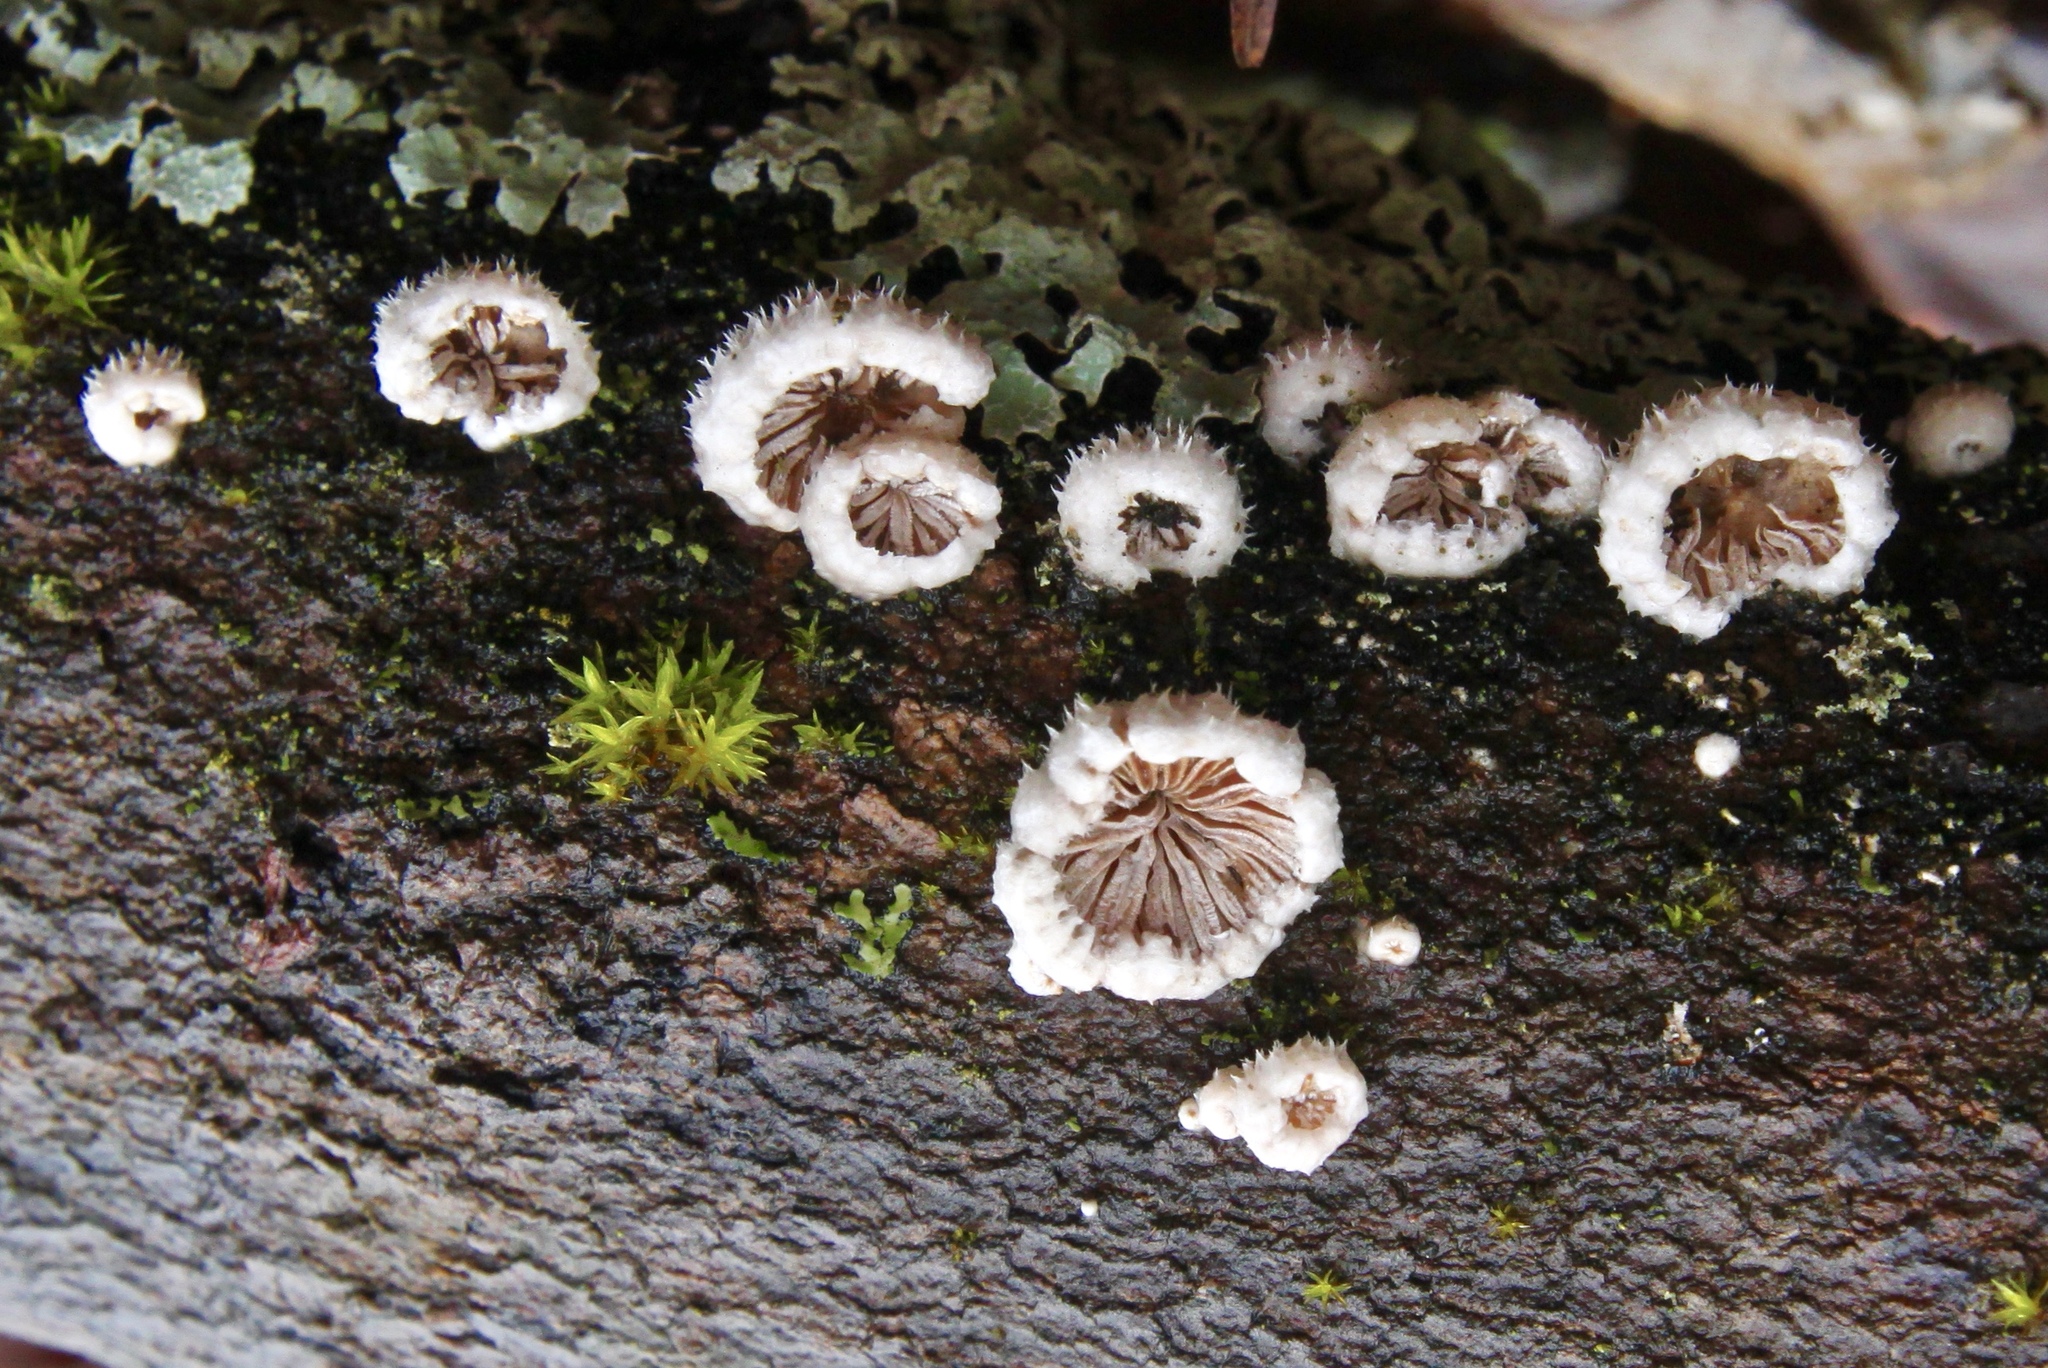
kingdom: Fungi
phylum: Basidiomycota
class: Agaricomycetes
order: Agaricales
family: Schizophyllaceae
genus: Schizophyllum
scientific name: Schizophyllum commune
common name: Common porecrust
